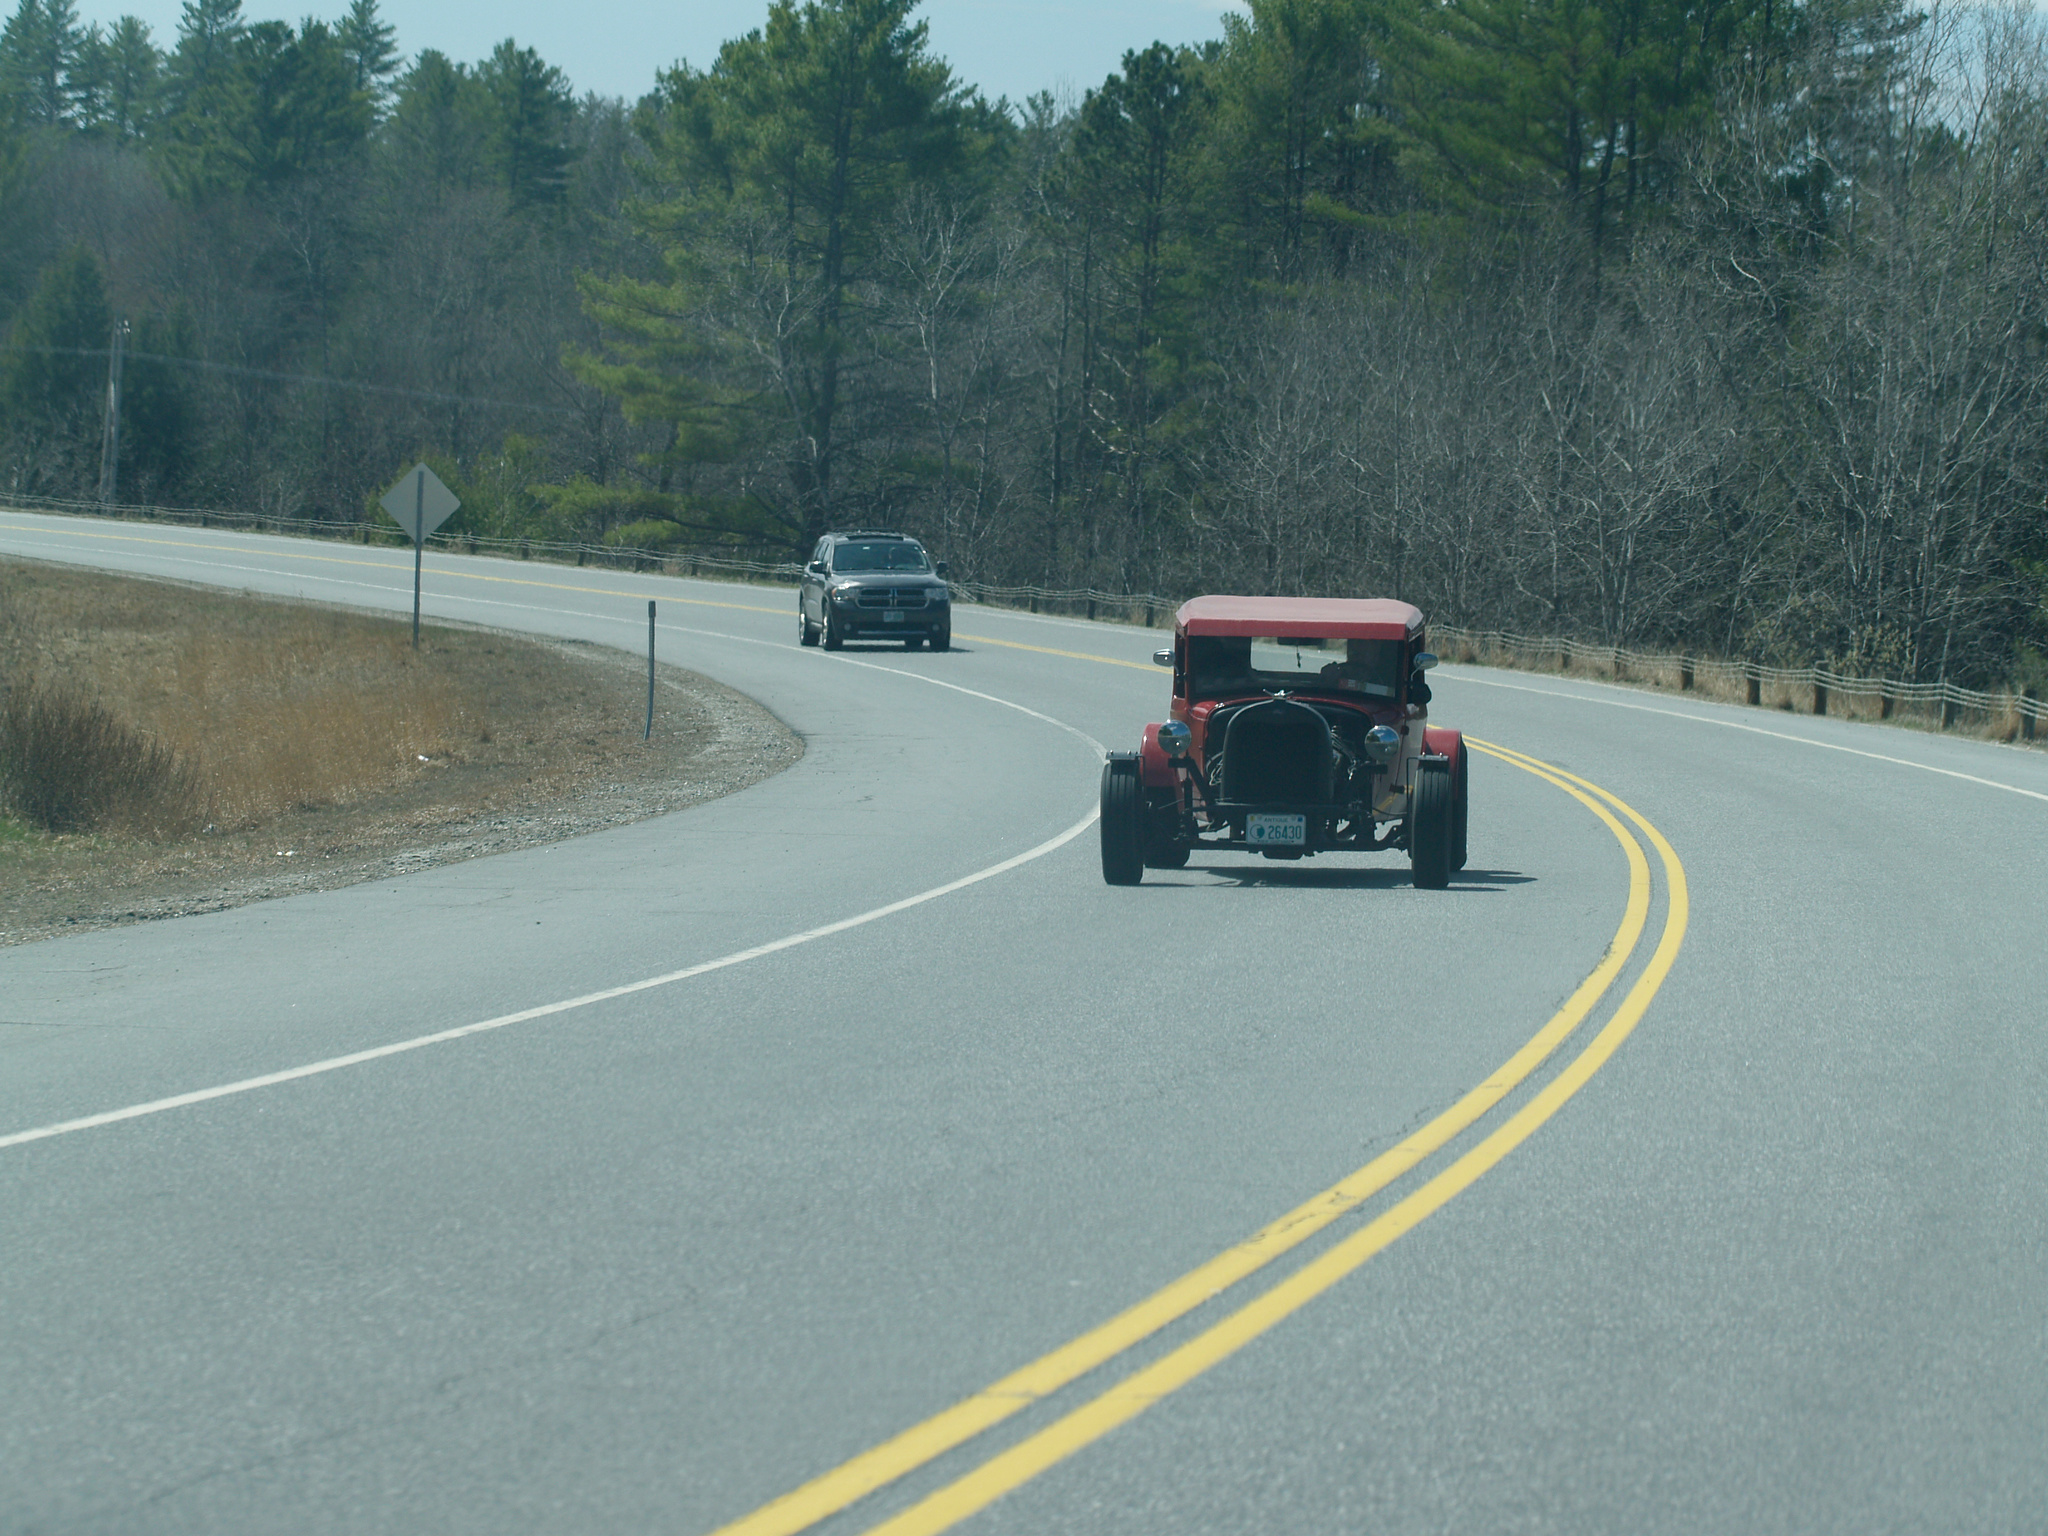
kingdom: Plantae
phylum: Tracheophyta
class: Pinopsida
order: Pinales
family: Pinaceae
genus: Pinus
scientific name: Pinus strobus
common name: Weymouth pine
